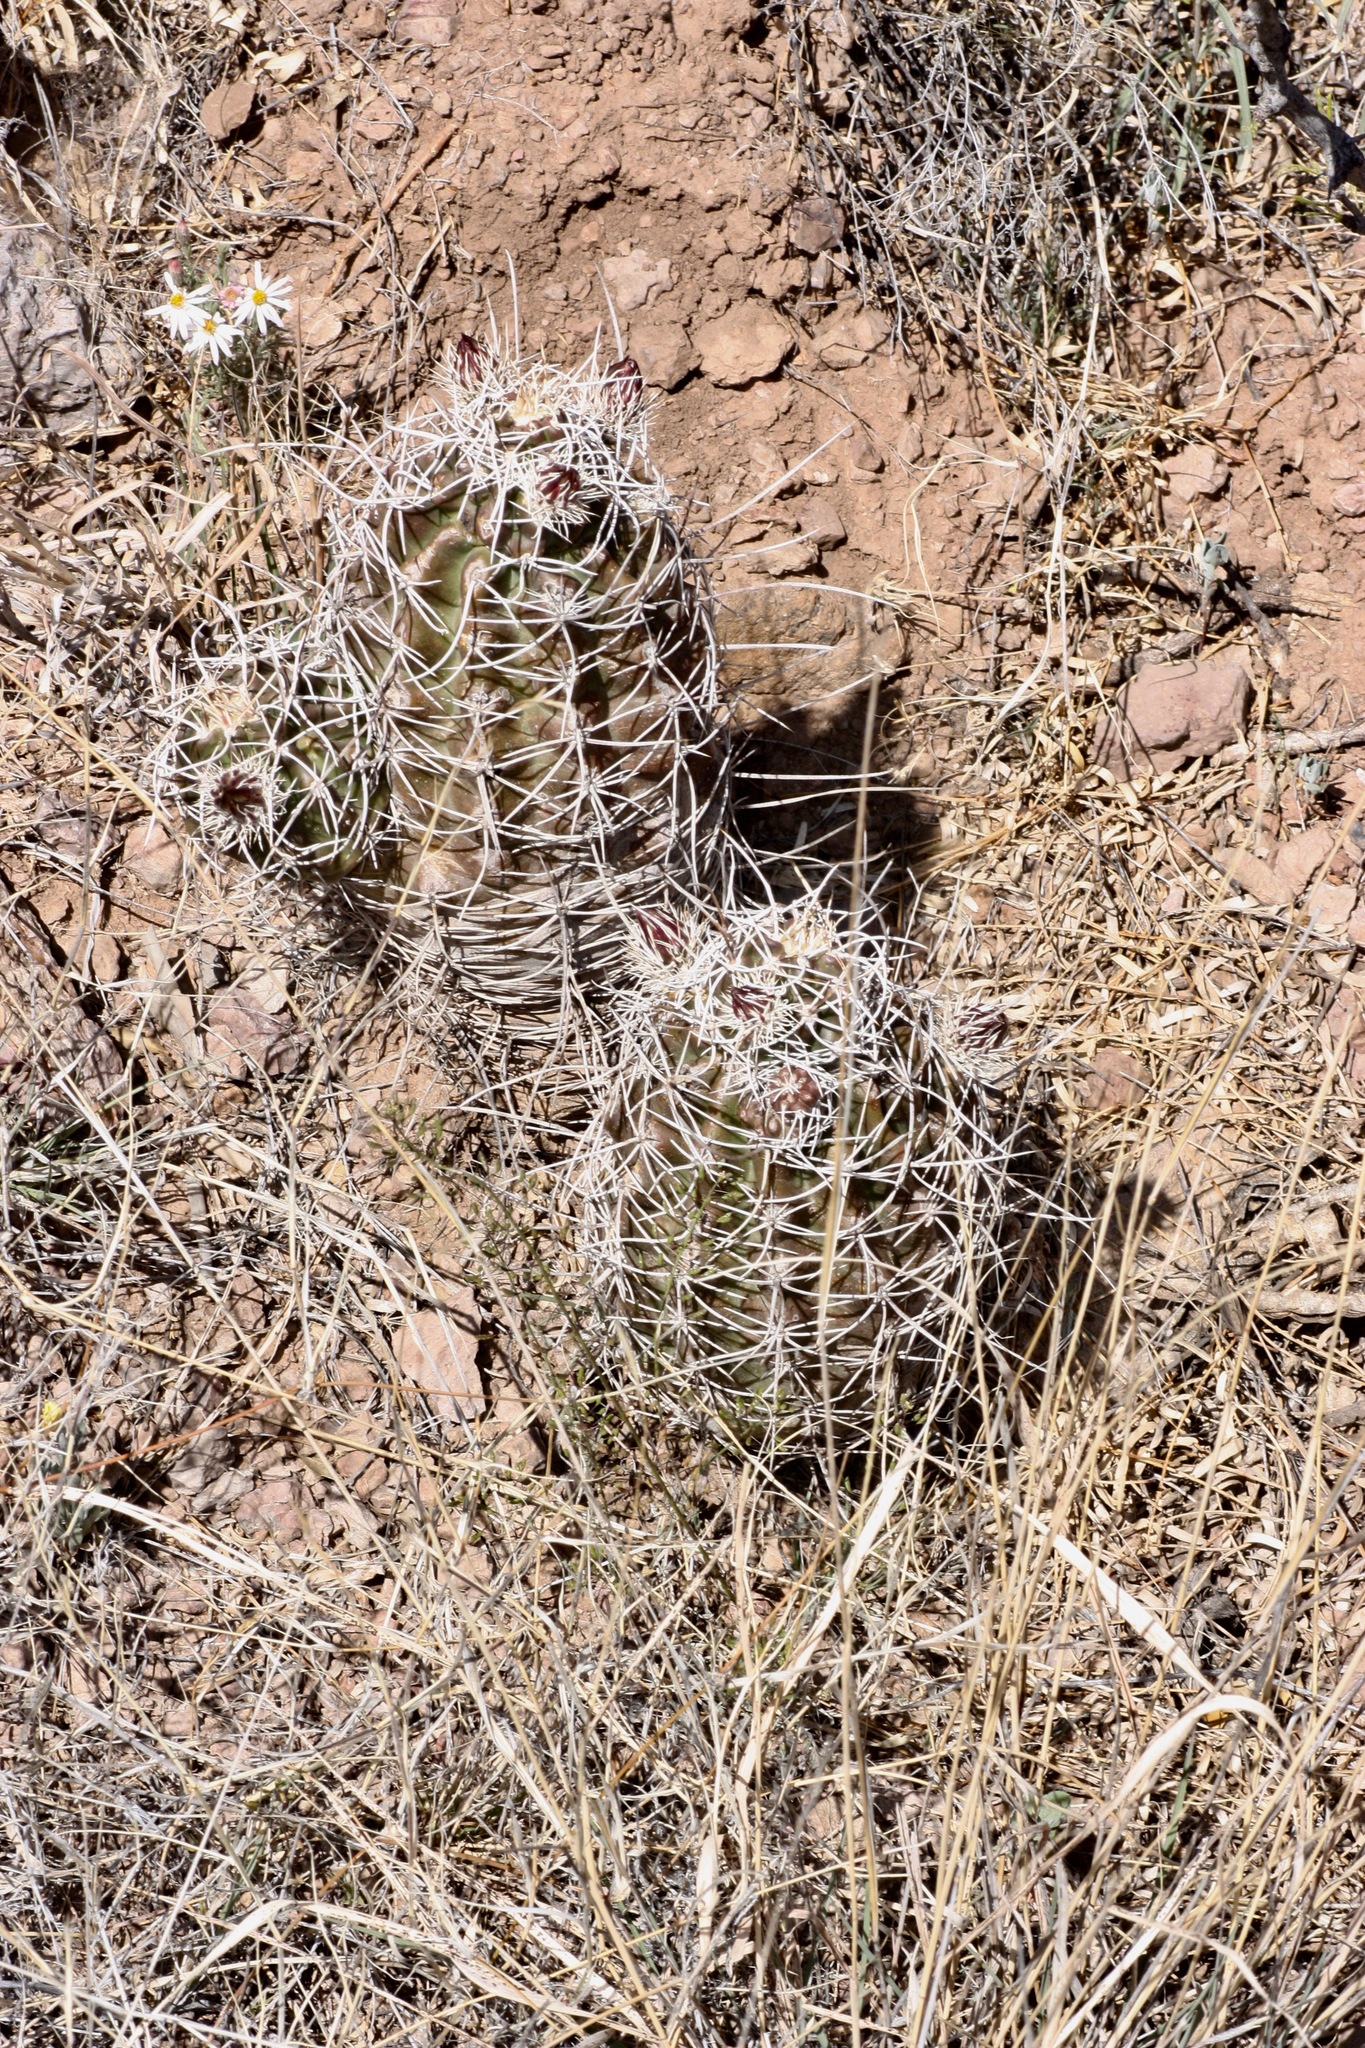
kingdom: Plantae
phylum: Tracheophyta
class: Magnoliopsida
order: Caryophyllales
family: Cactaceae
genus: Echinocereus
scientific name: Echinocereus fendleri
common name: Fendler's hedgehog cactus
